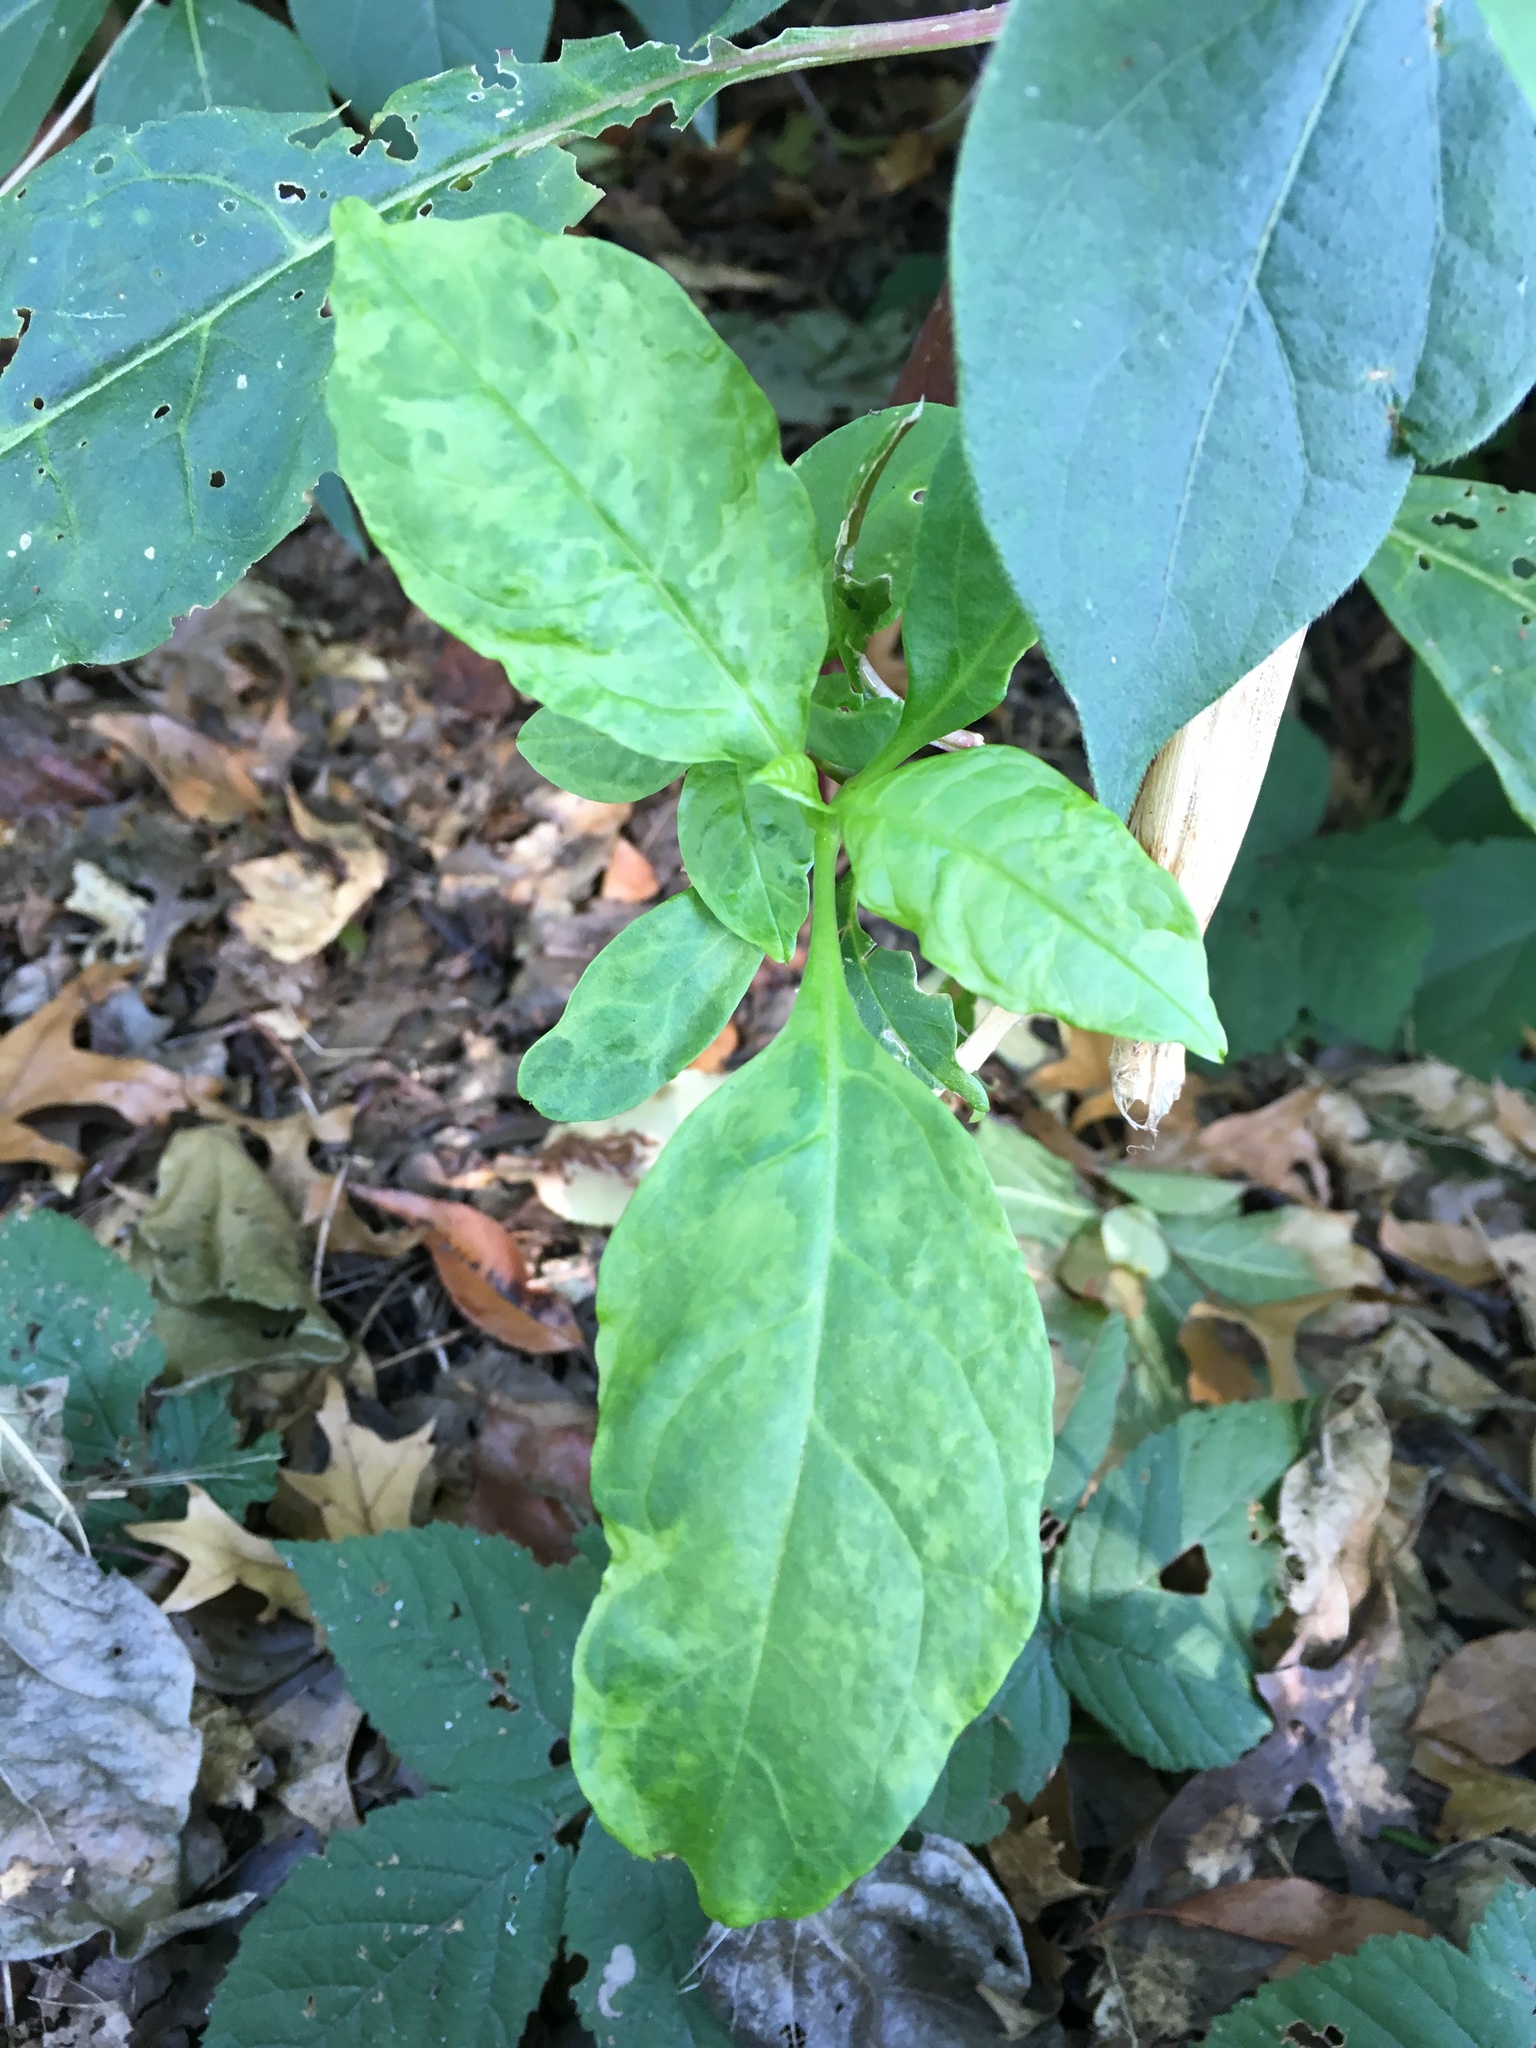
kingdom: Plantae
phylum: Tracheophyta
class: Magnoliopsida
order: Caryophyllales
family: Phytolaccaceae
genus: Phytolacca
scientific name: Phytolacca americana
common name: American pokeweed
